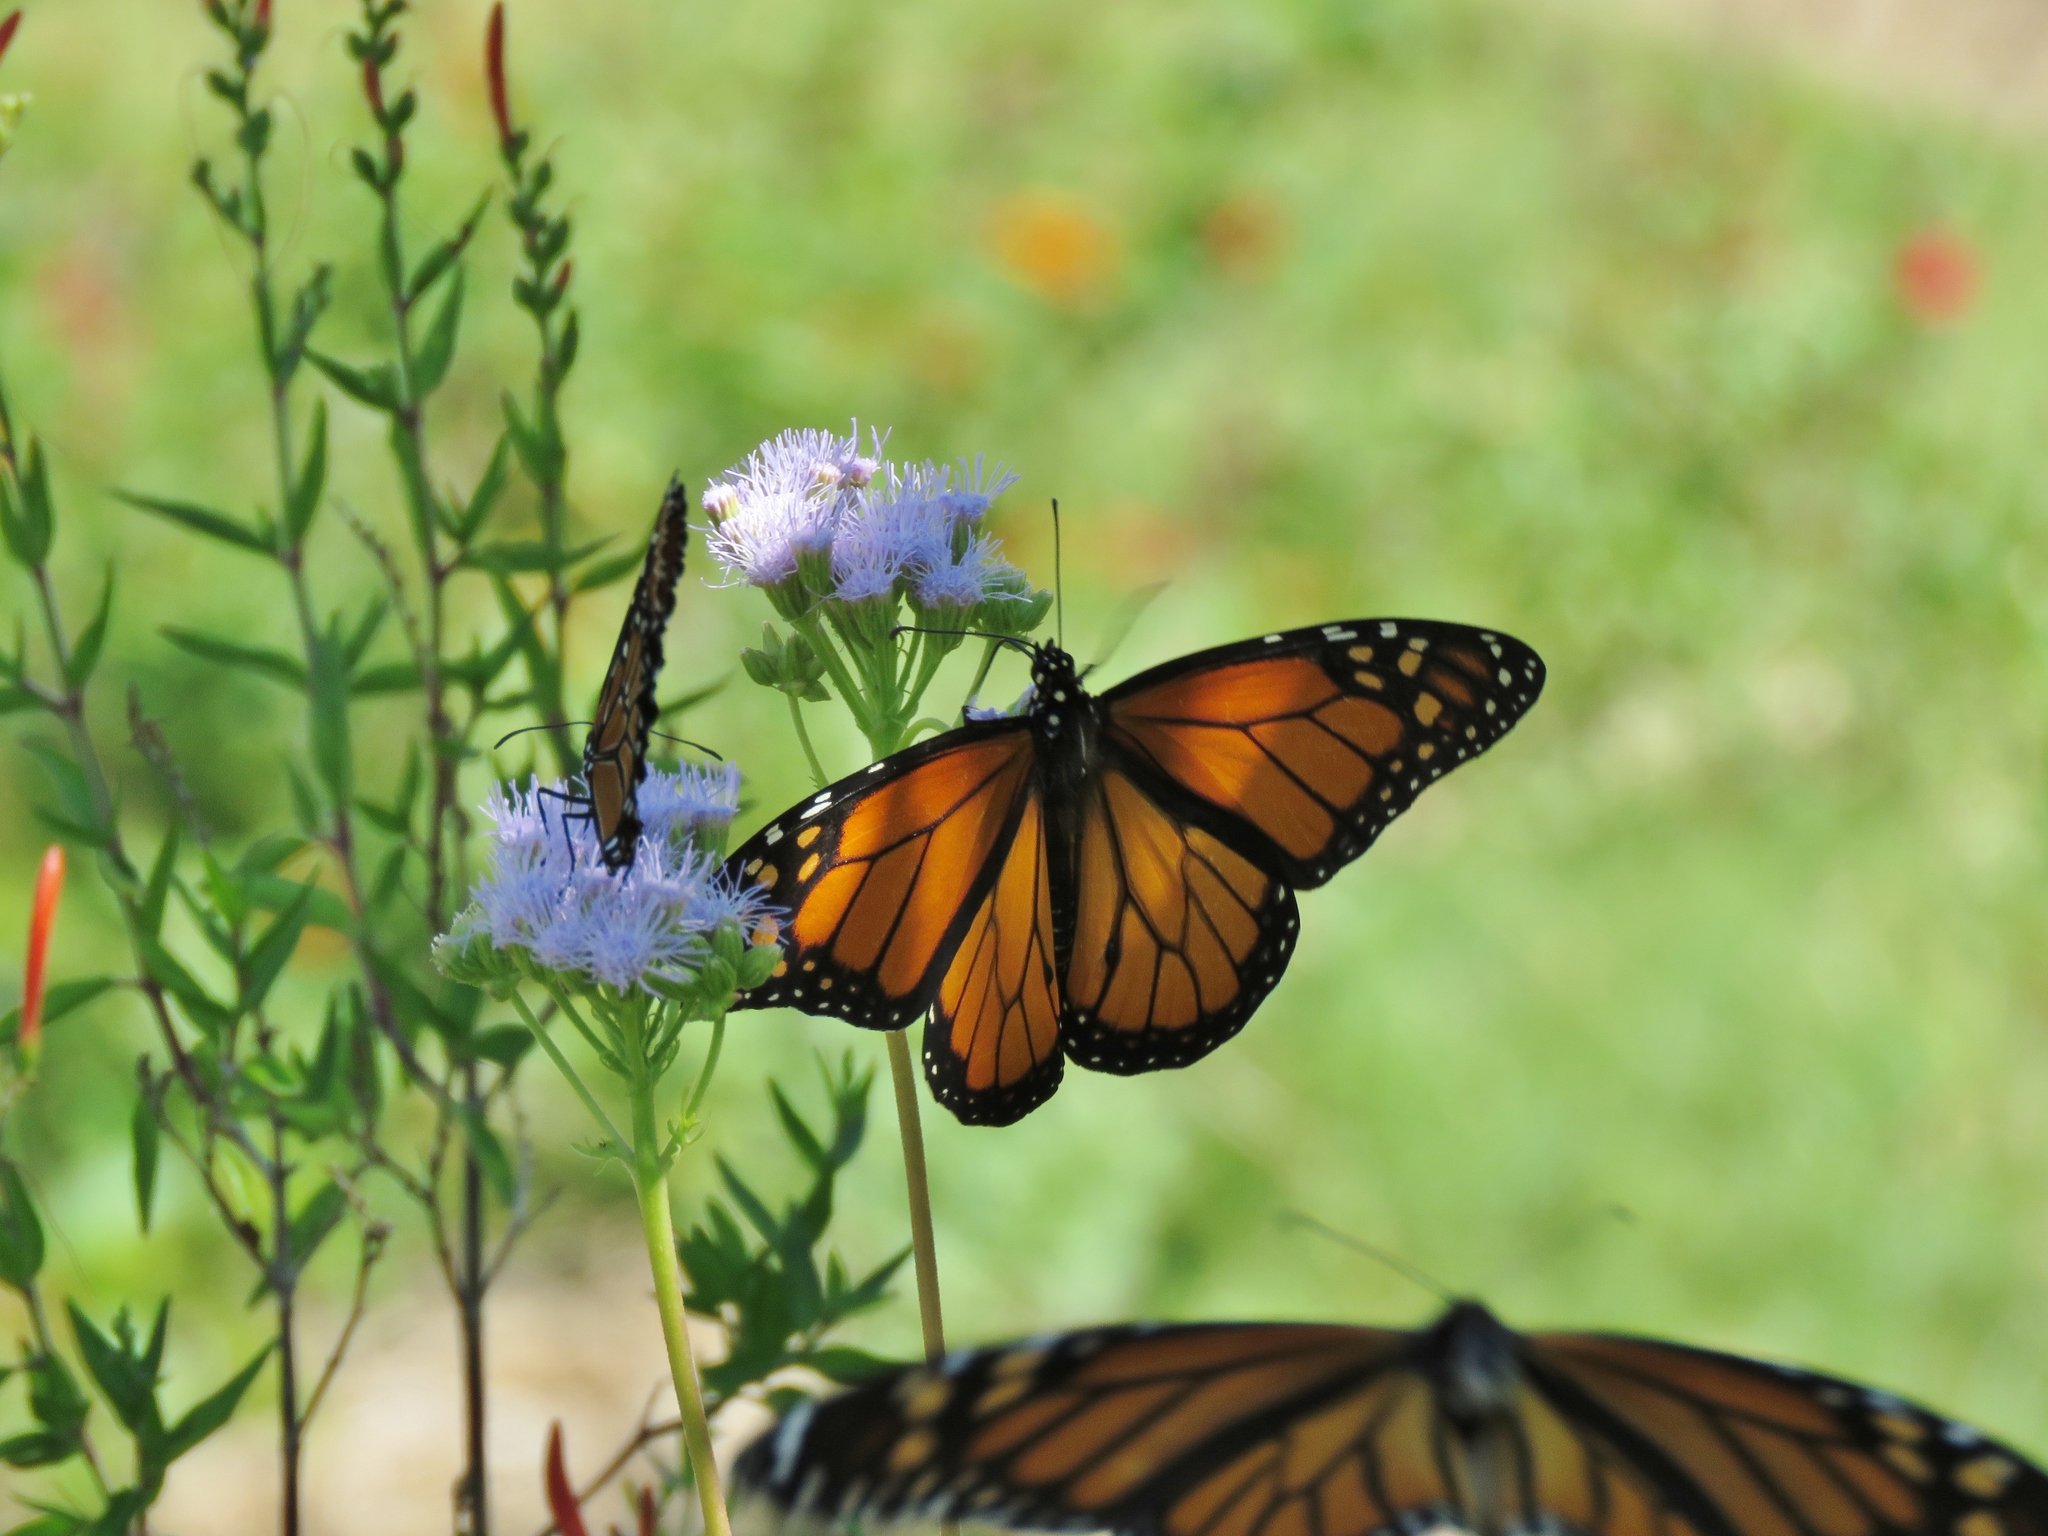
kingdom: Animalia
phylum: Arthropoda
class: Insecta
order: Lepidoptera
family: Nymphalidae
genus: Danaus
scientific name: Danaus plexippus
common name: Monarch
